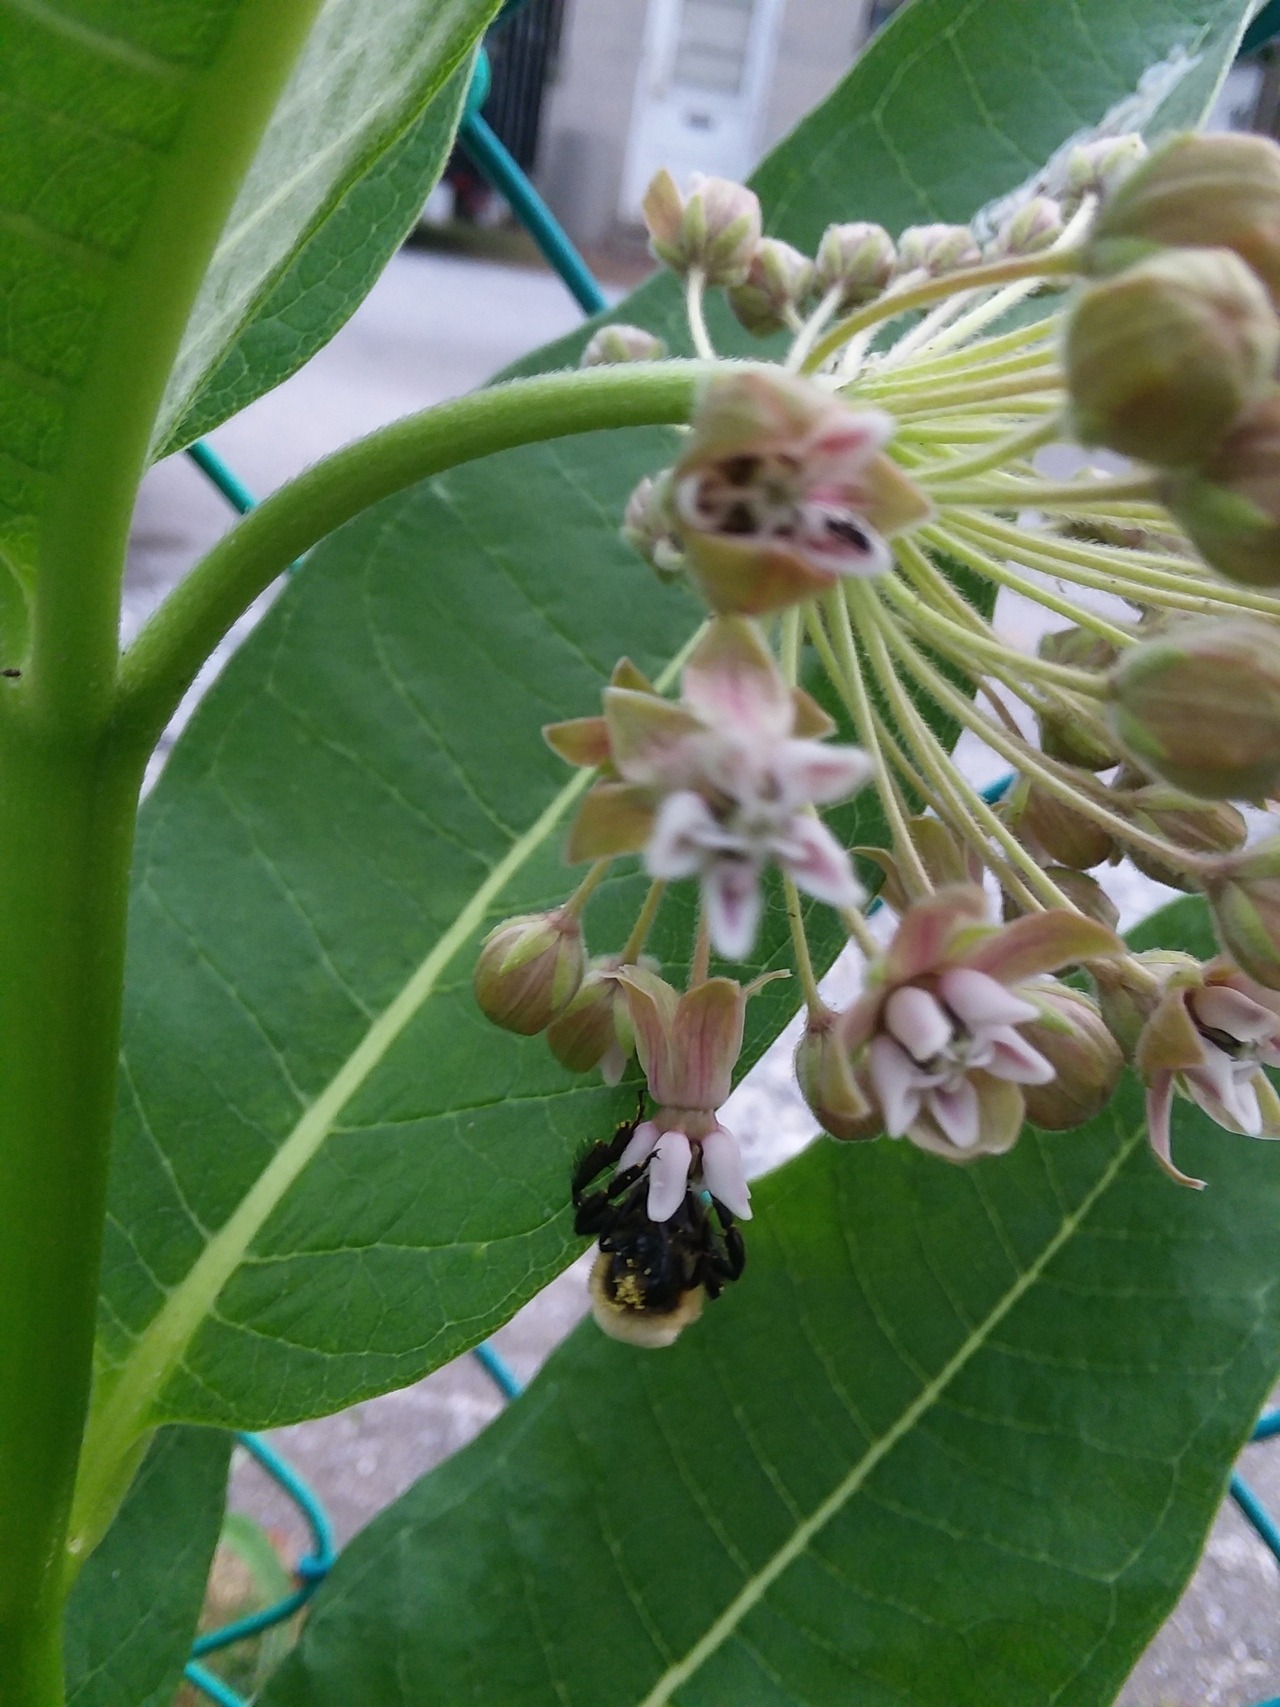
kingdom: Animalia
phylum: Arthropoda
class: Insecta
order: Hymenoptera
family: Apidae
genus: Bombus
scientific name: Bombus griseocollis
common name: Brown-belted bumble bee
